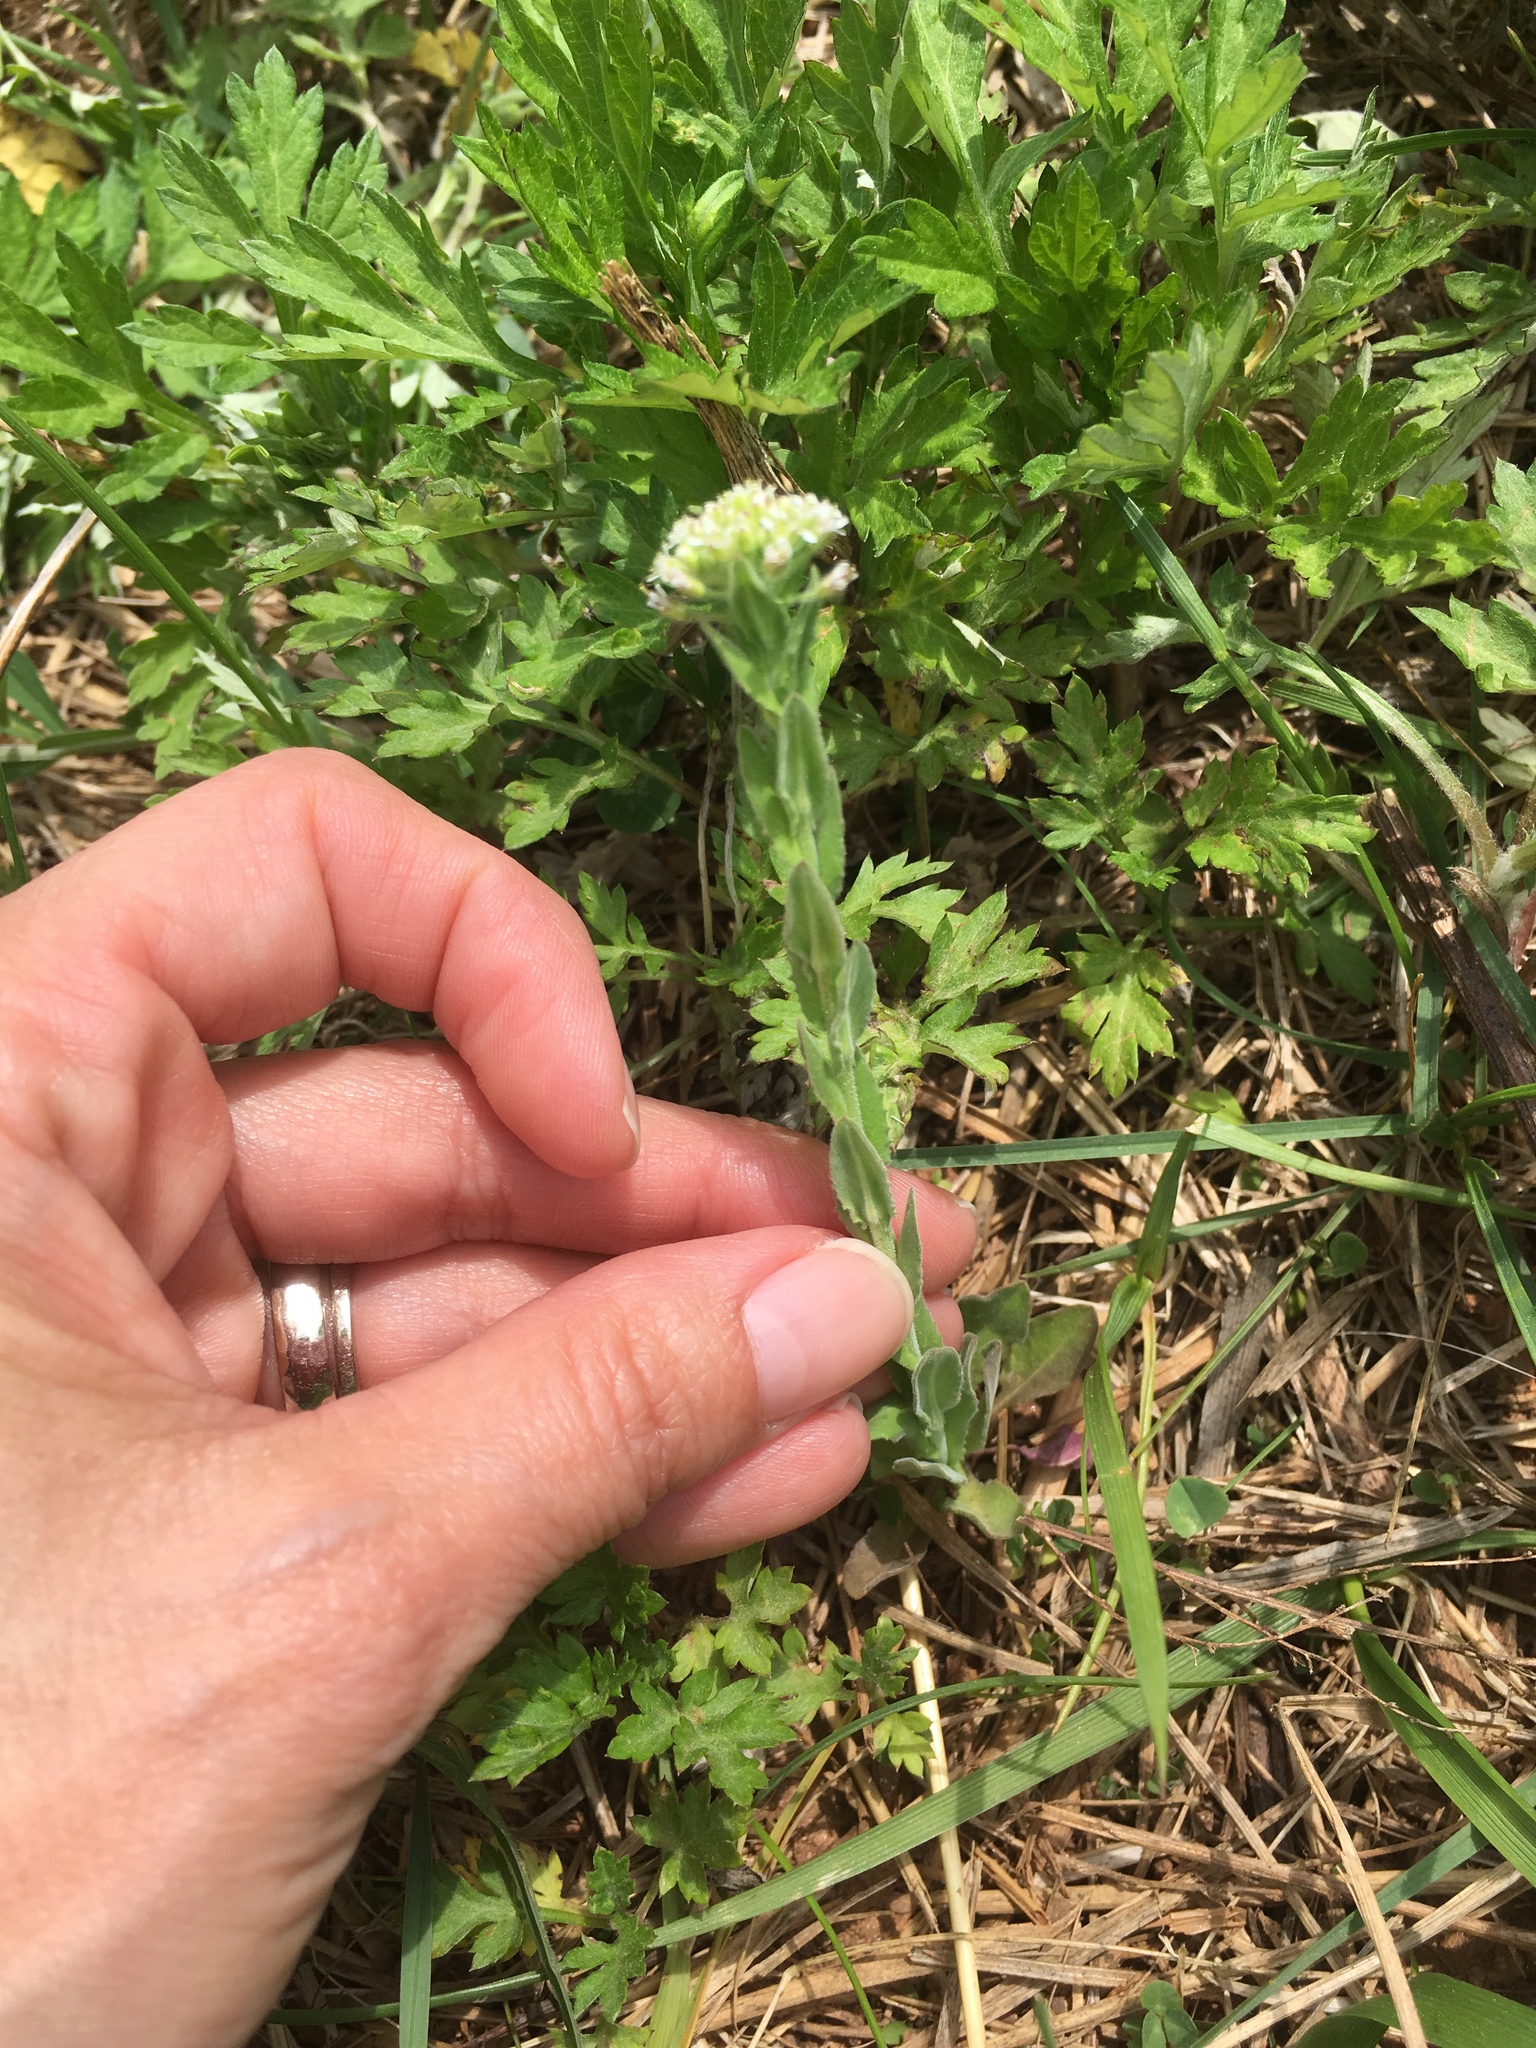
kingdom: Plantae
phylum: Tracheophyta
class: Magnoliopsida
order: Brassicales
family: Brassicaceae
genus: Lepidium
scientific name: Lepidium campestre
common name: Field pepperwort
